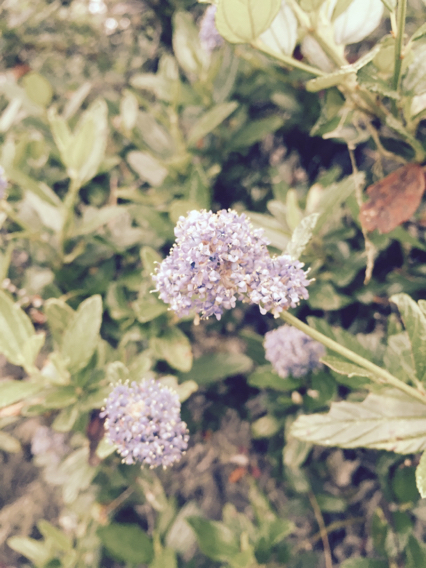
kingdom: Plantae
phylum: Tracheophyta
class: Magnoliopsida
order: Rosales
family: Rhamnaceae
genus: Ceanothus
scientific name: Ceanothus thyrsiflorus
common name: California-lilac
